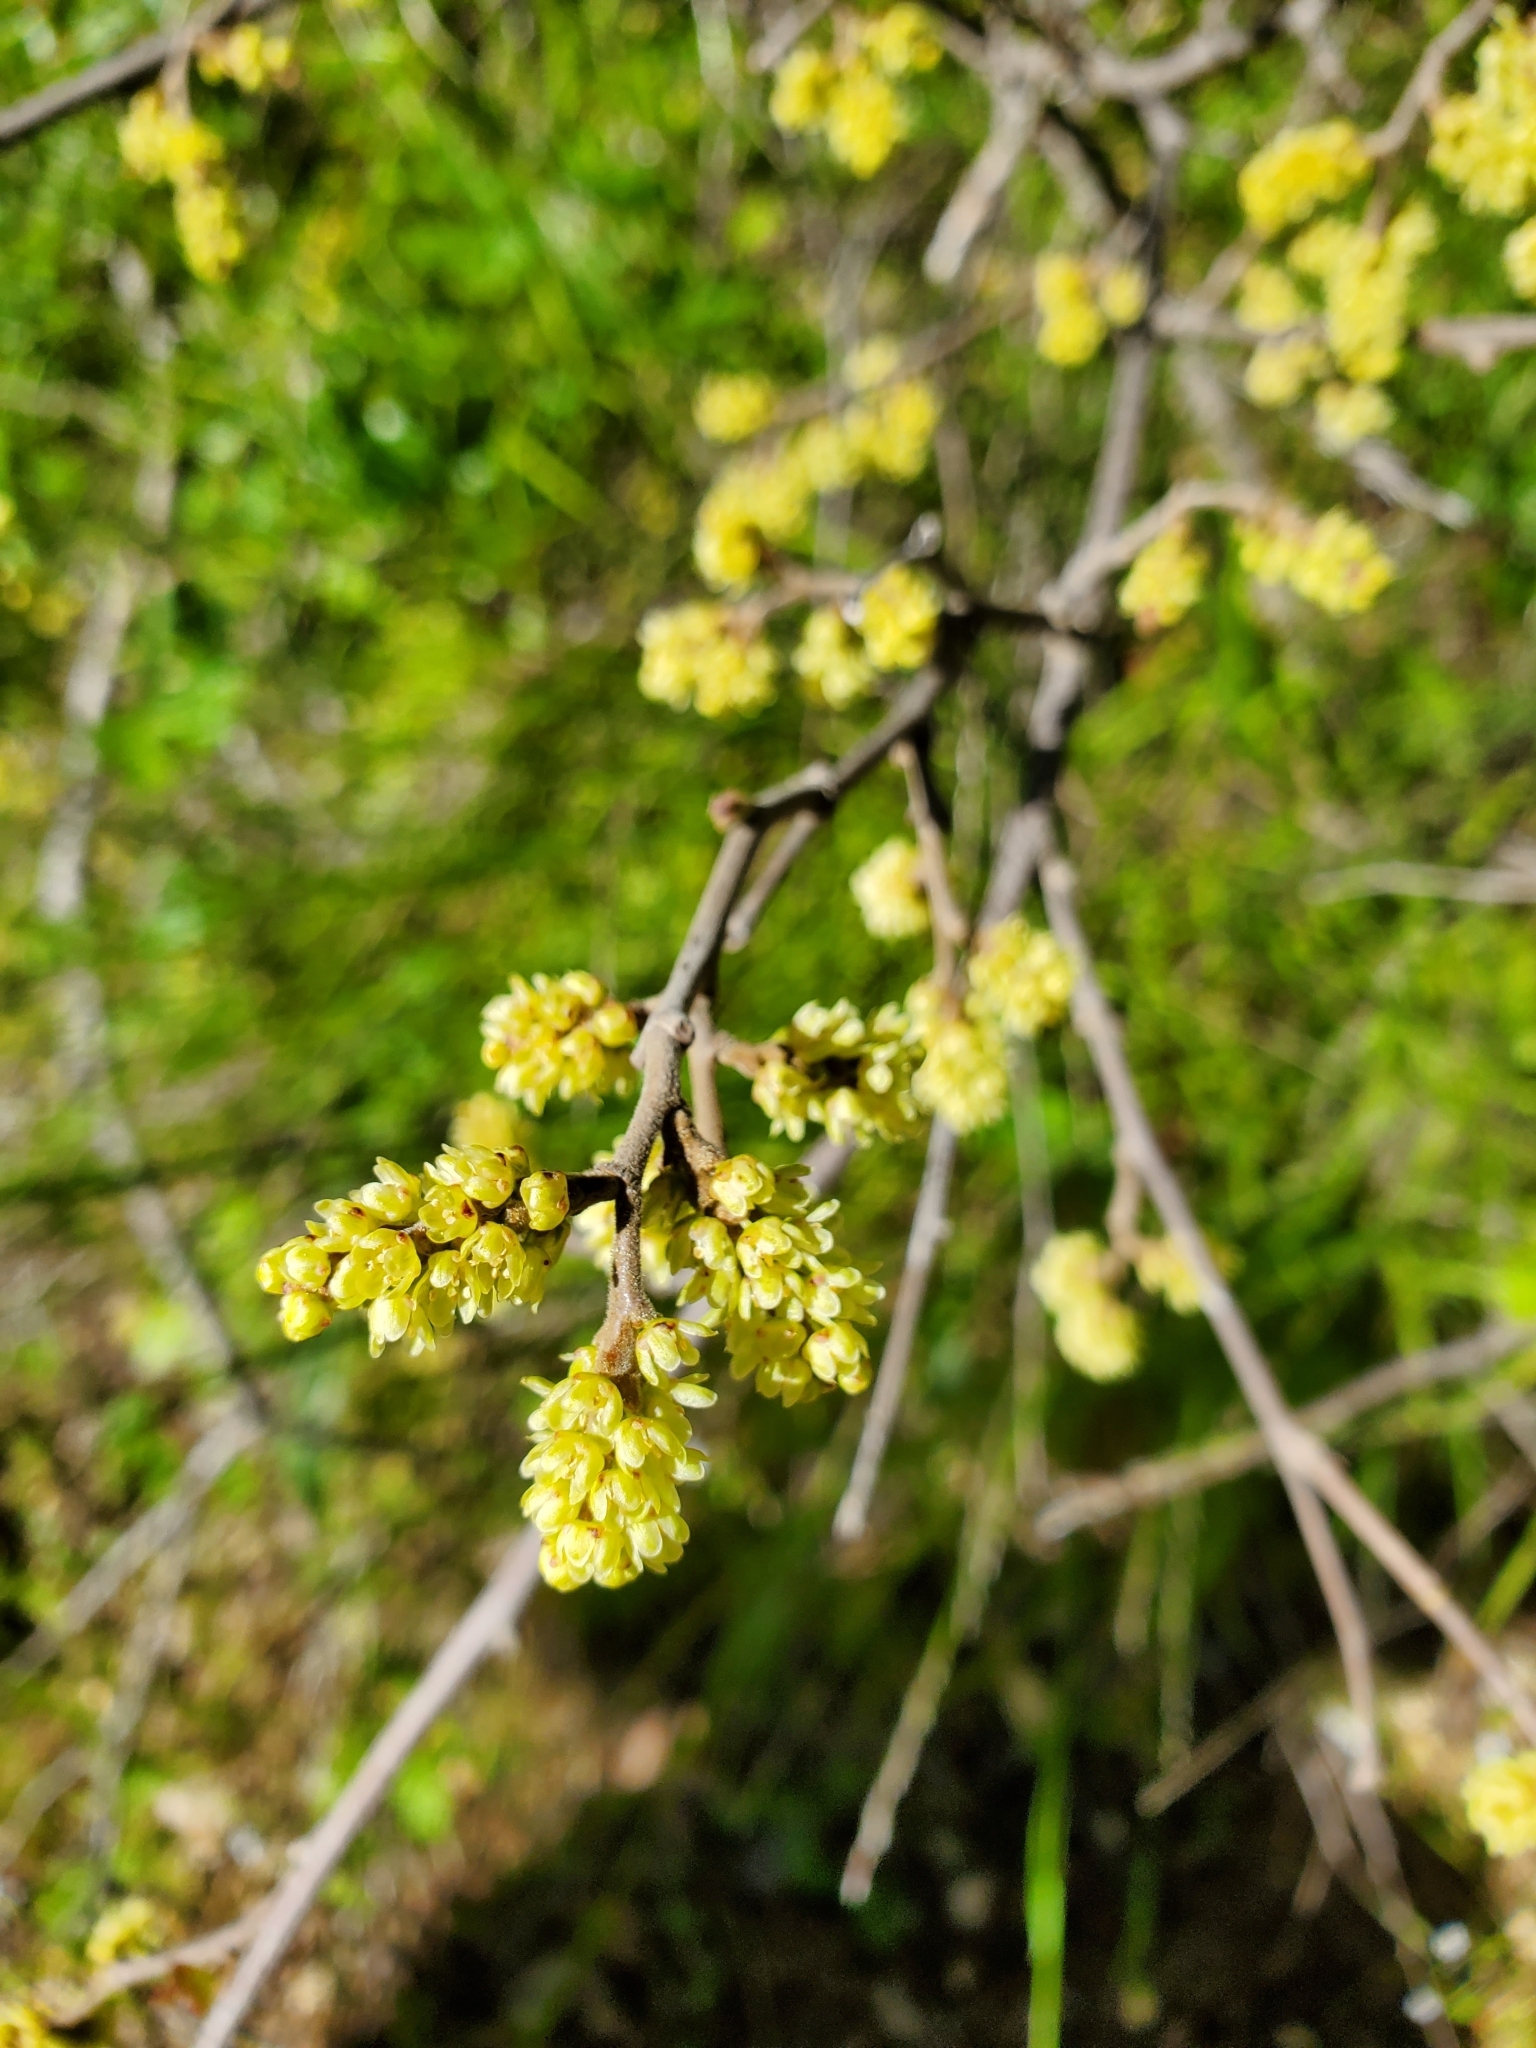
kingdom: Plantae
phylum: Tracheophyta
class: Magnoliopsida
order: Sapindales
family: Anacardiaceae
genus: Rhus
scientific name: Rhus aromatica
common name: Aromatic sumac
